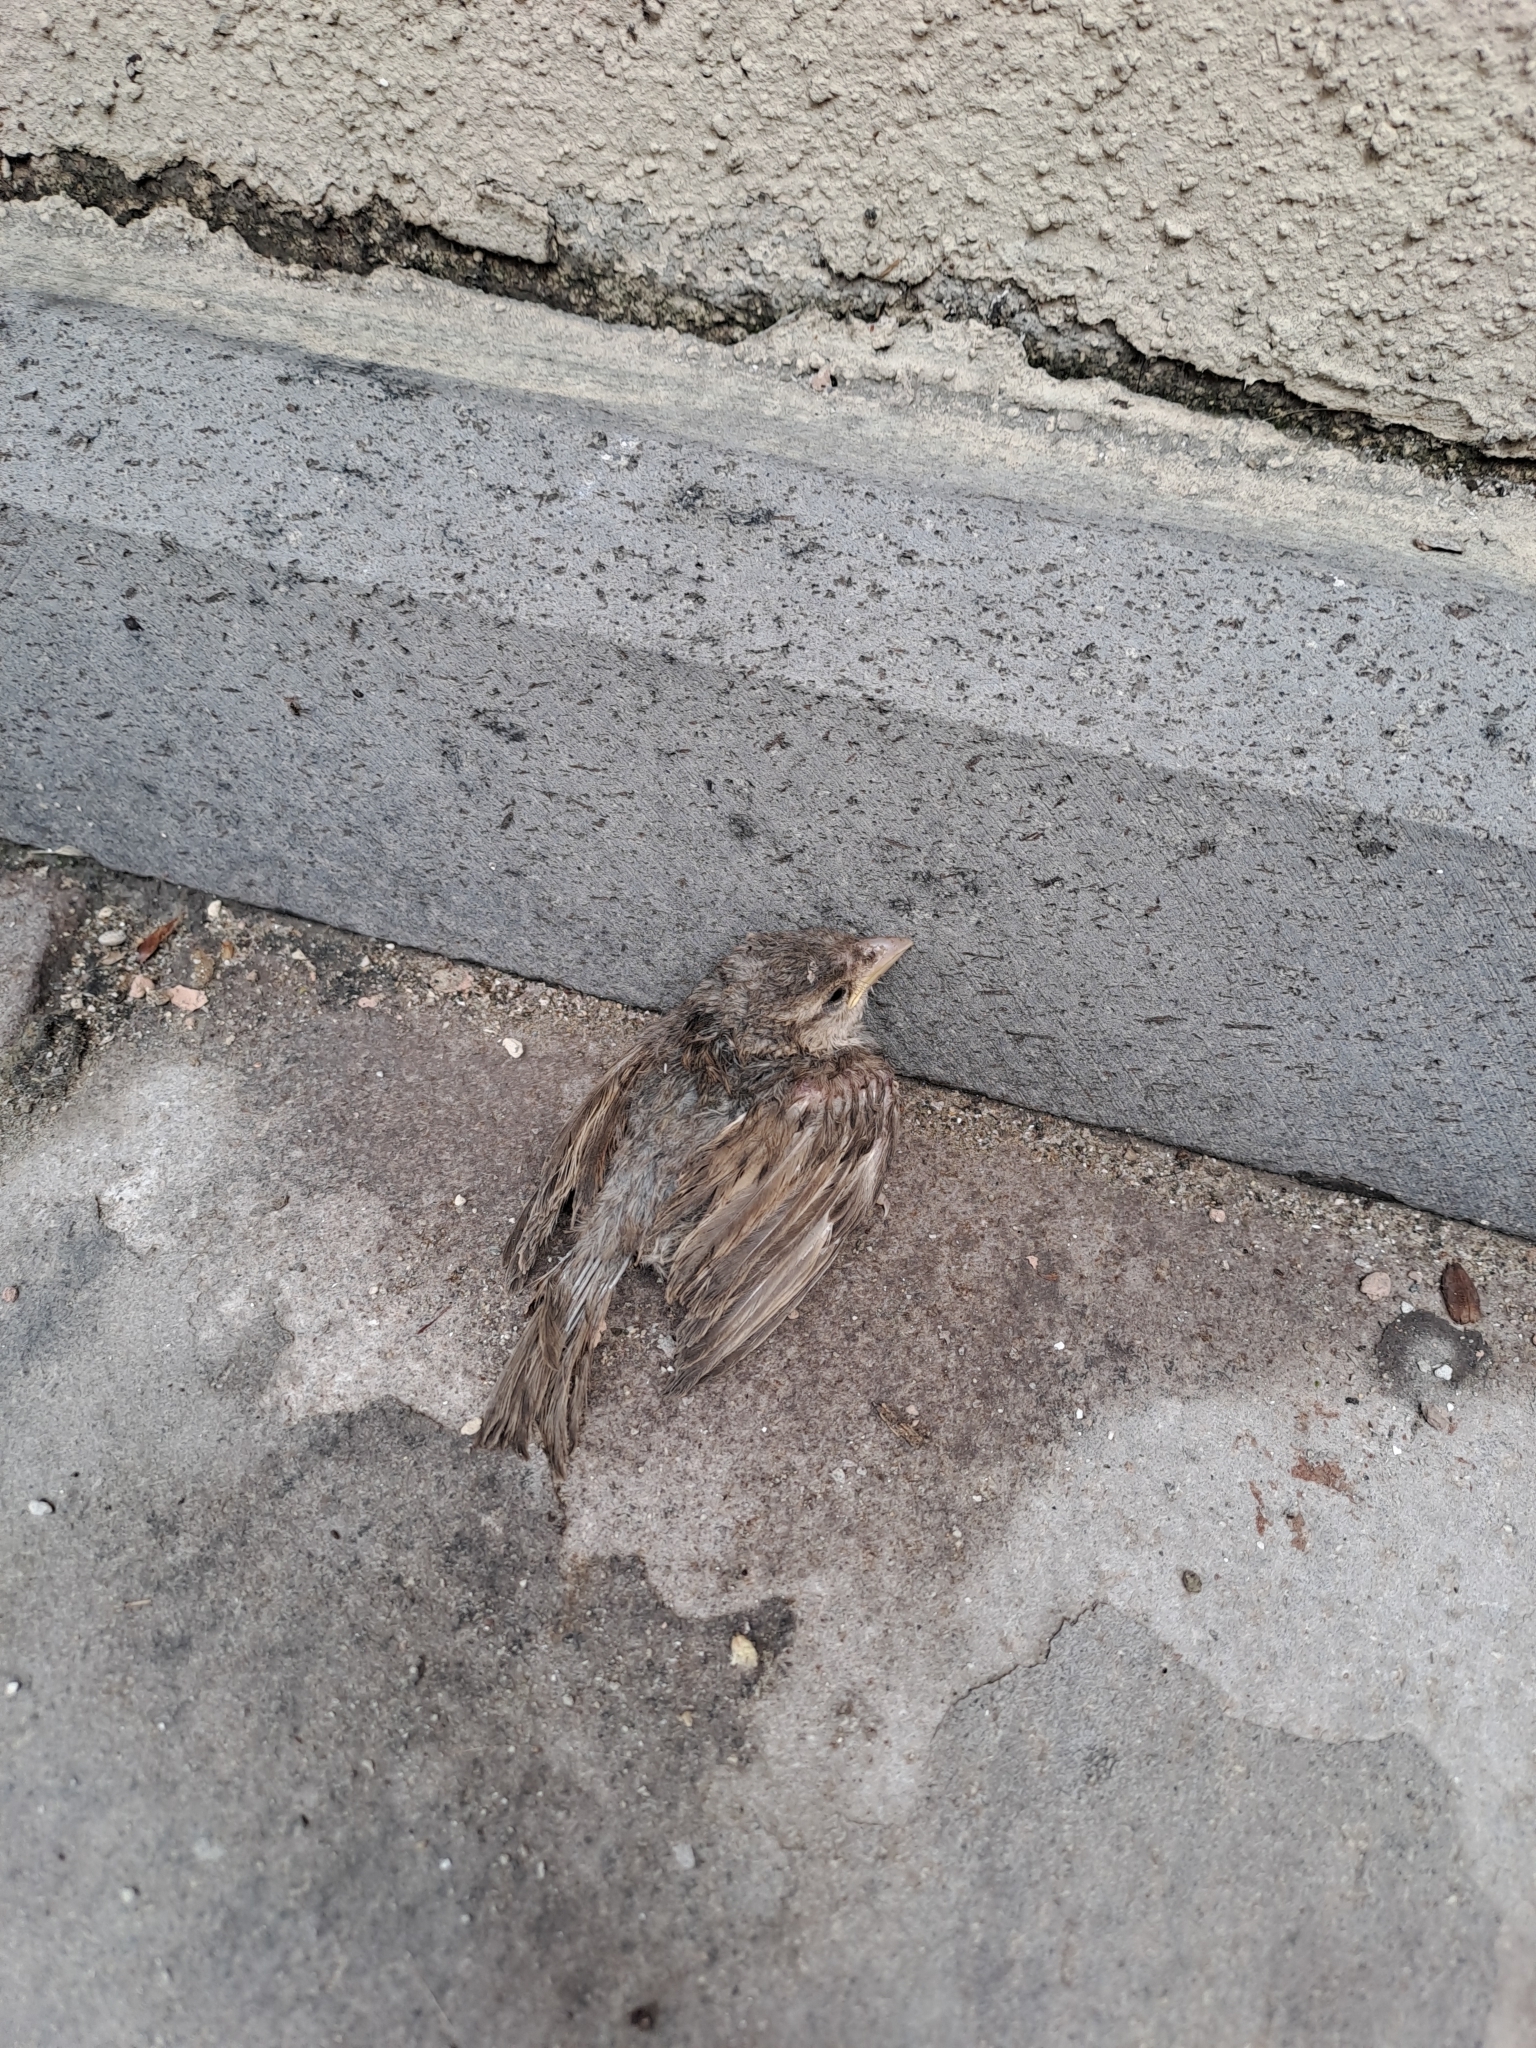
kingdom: Animalia
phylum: Chordata
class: Aves
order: Passeriformes
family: Passeridae
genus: Passer
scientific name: Passer domesticus
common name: House sparrow
